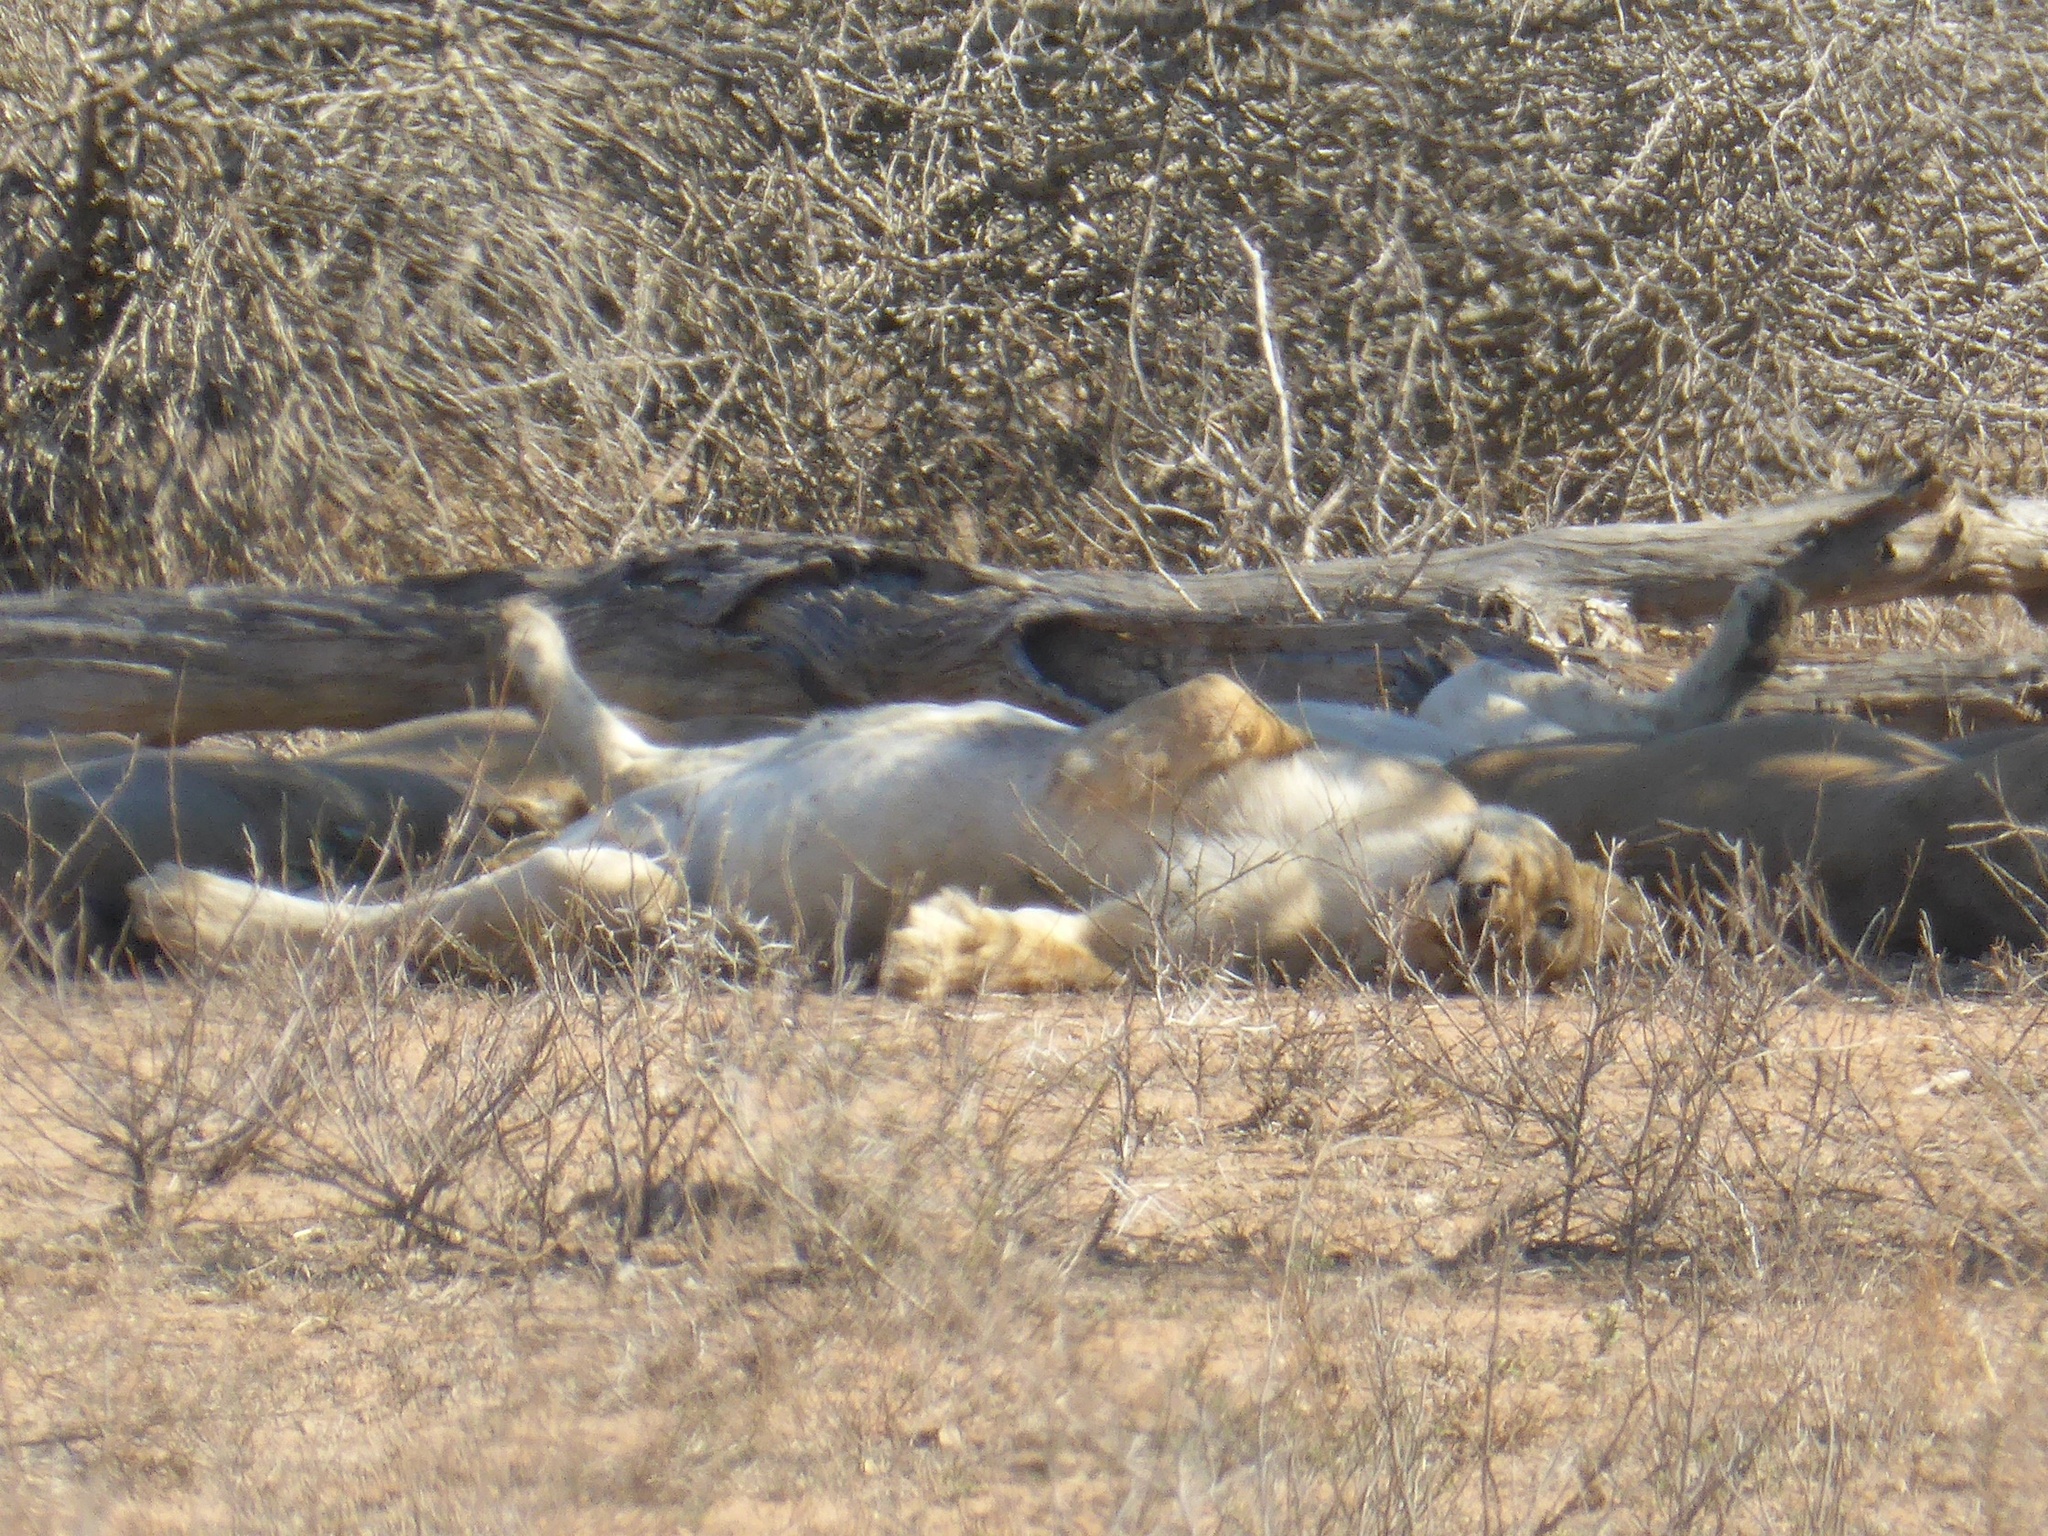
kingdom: Animalia
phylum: Chordata
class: Mammalia
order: Carnivora
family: Felidae
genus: Panthera
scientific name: Panthera leo
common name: Lion
